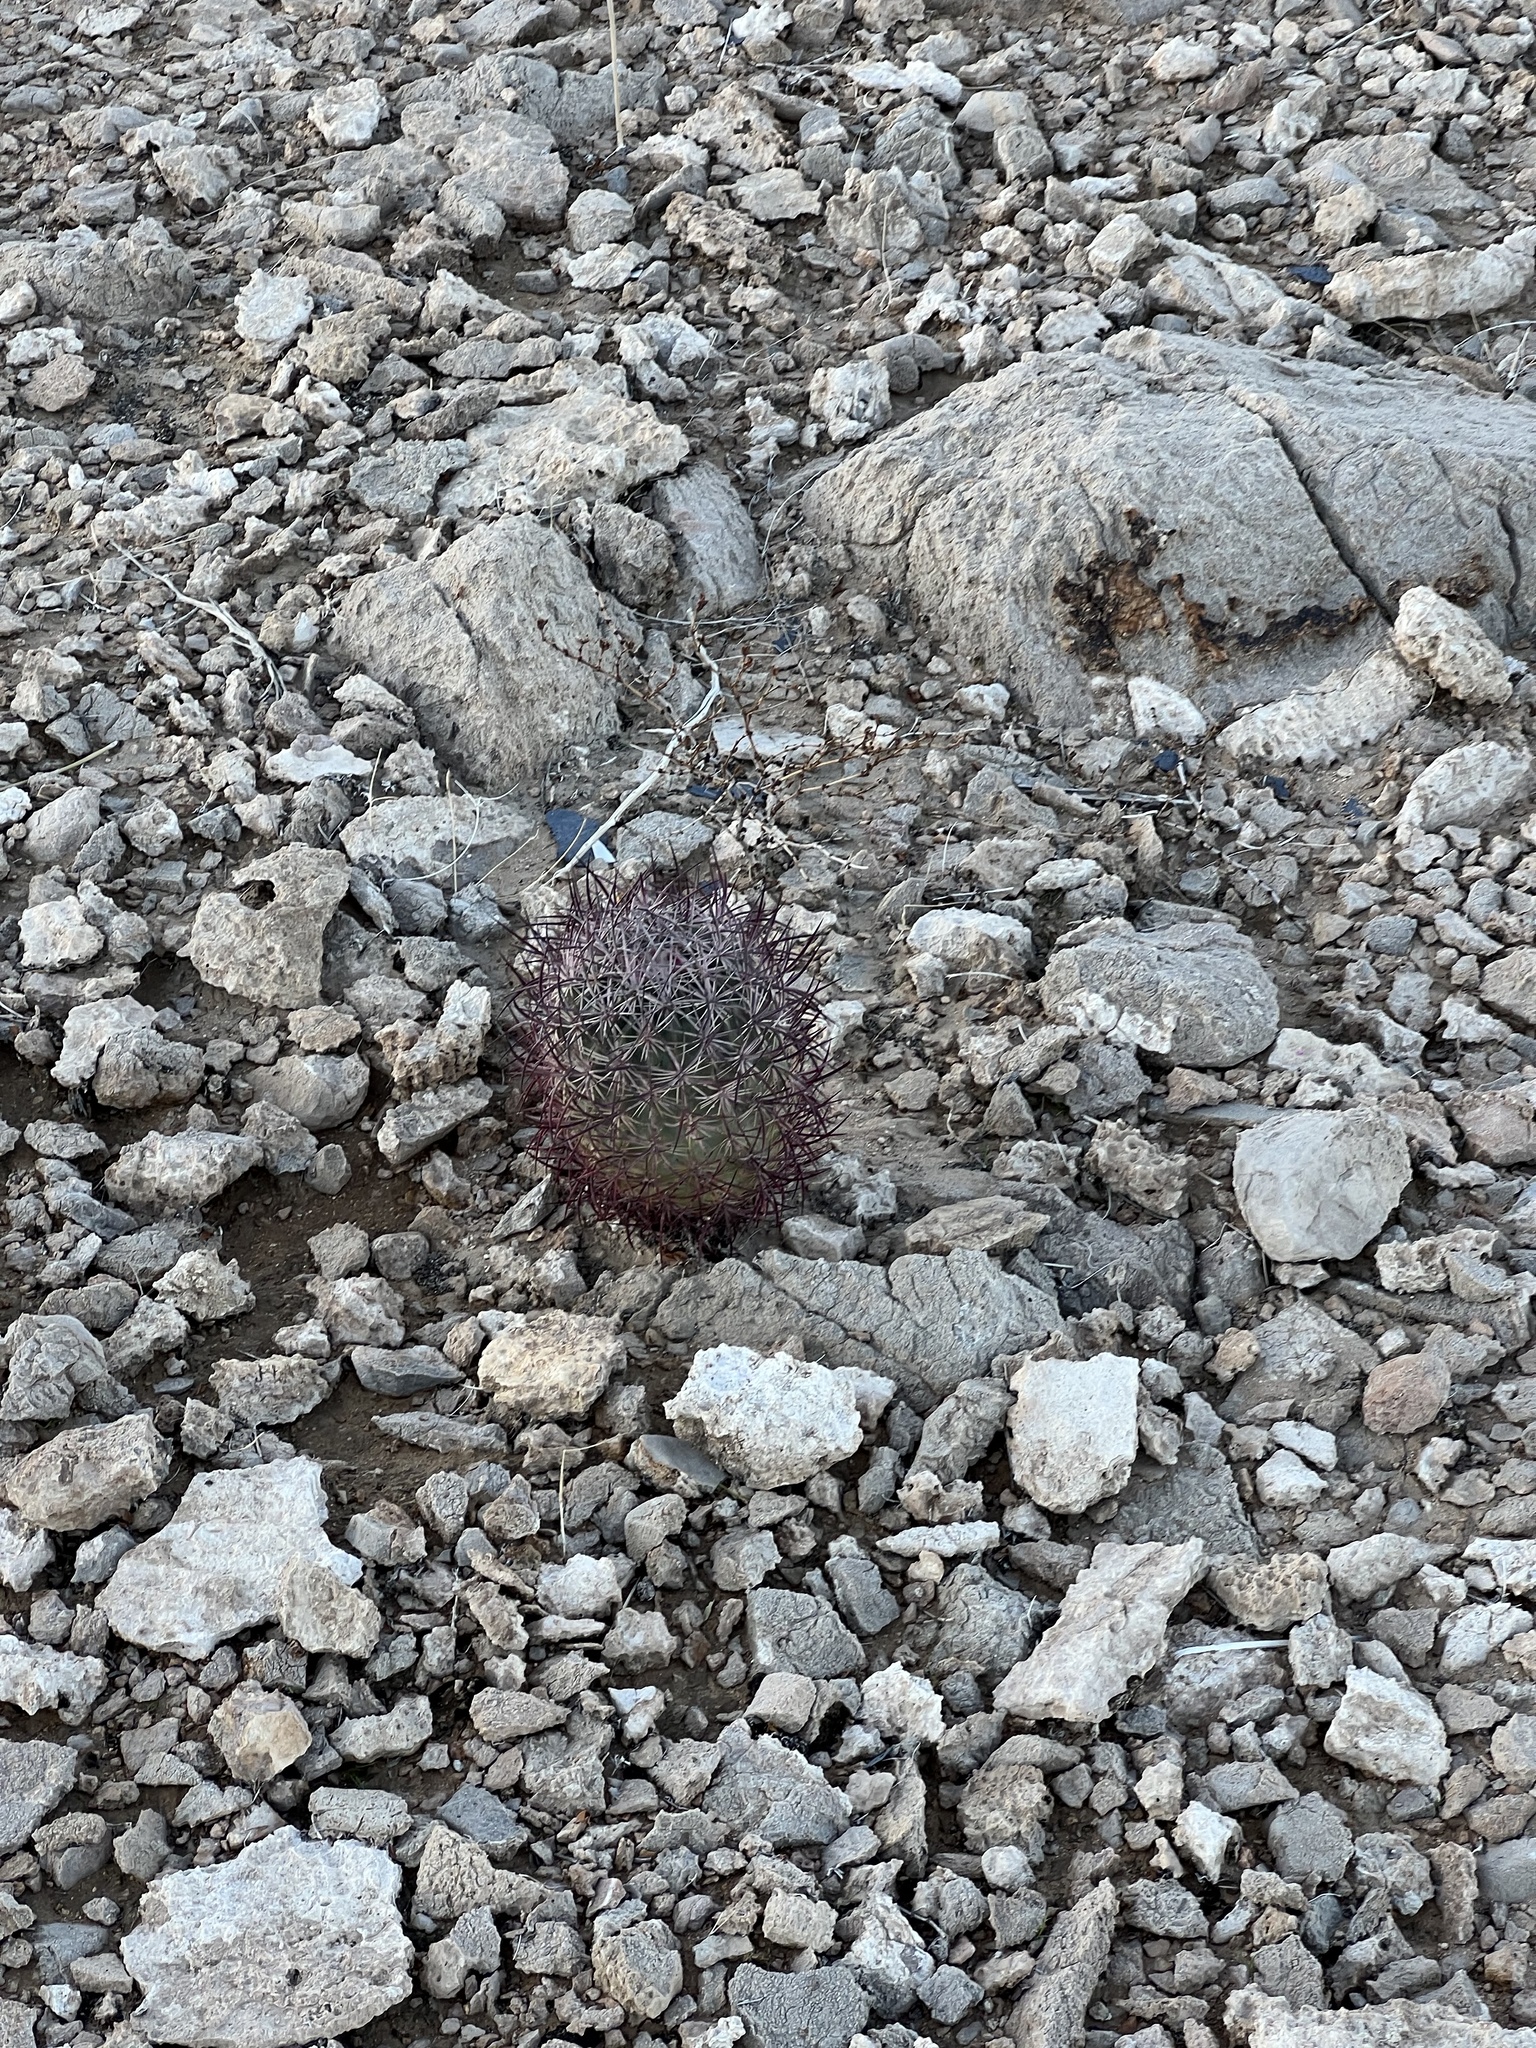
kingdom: Plantae
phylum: Tracheophyta
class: Magnoliopsida
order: Caryophyllales
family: Cactaceae
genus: Sclerocactus
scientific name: Sclerocactus johnsonii
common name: Eight-spine fishhook cactus
